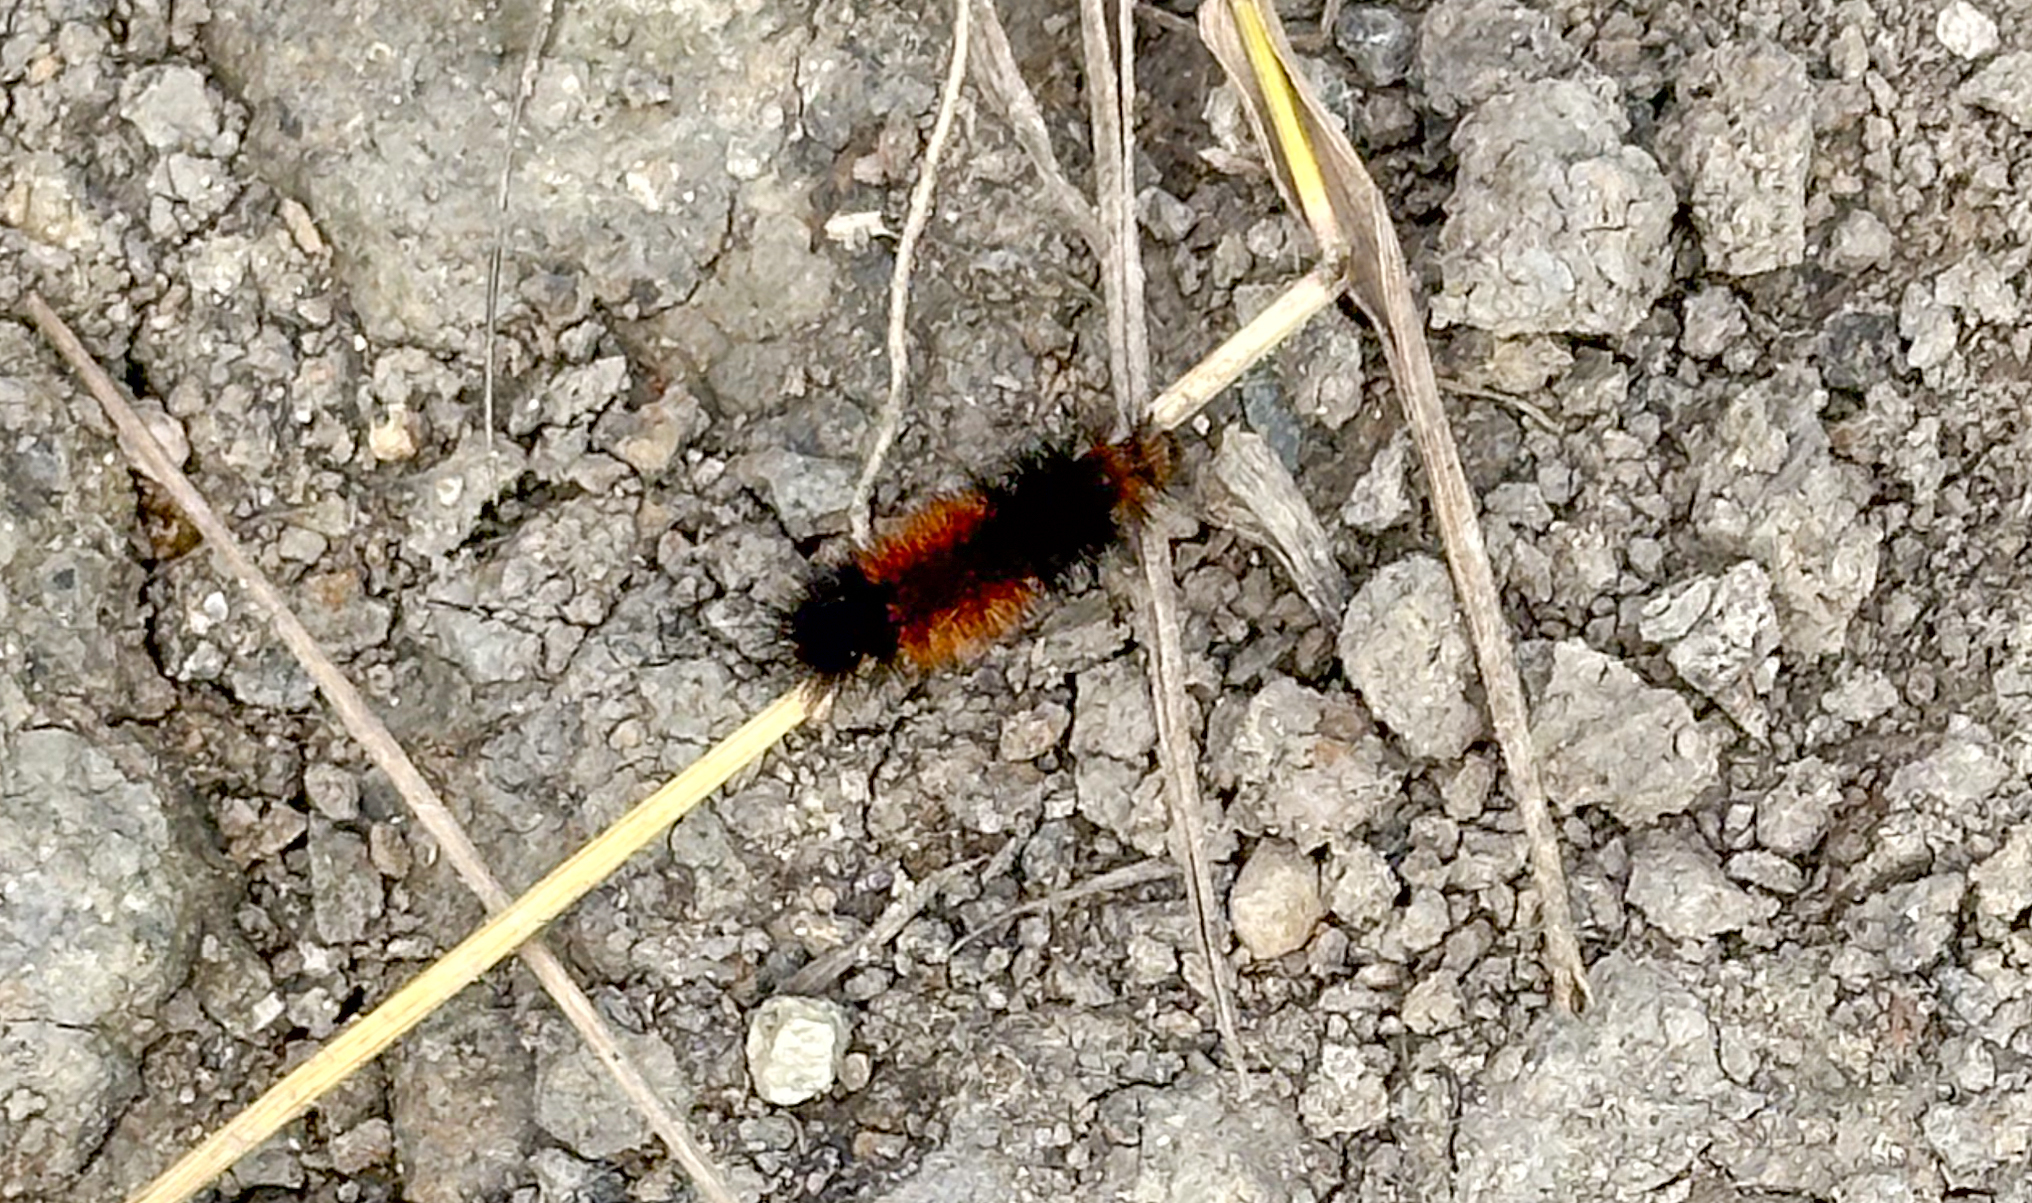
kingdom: Animalia
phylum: Arthropoda
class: Insecta
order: Lepidoptera
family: Erebidae
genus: Pyrrharctia
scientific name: Pyrrharctia isabella
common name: Isabella tiger moth
